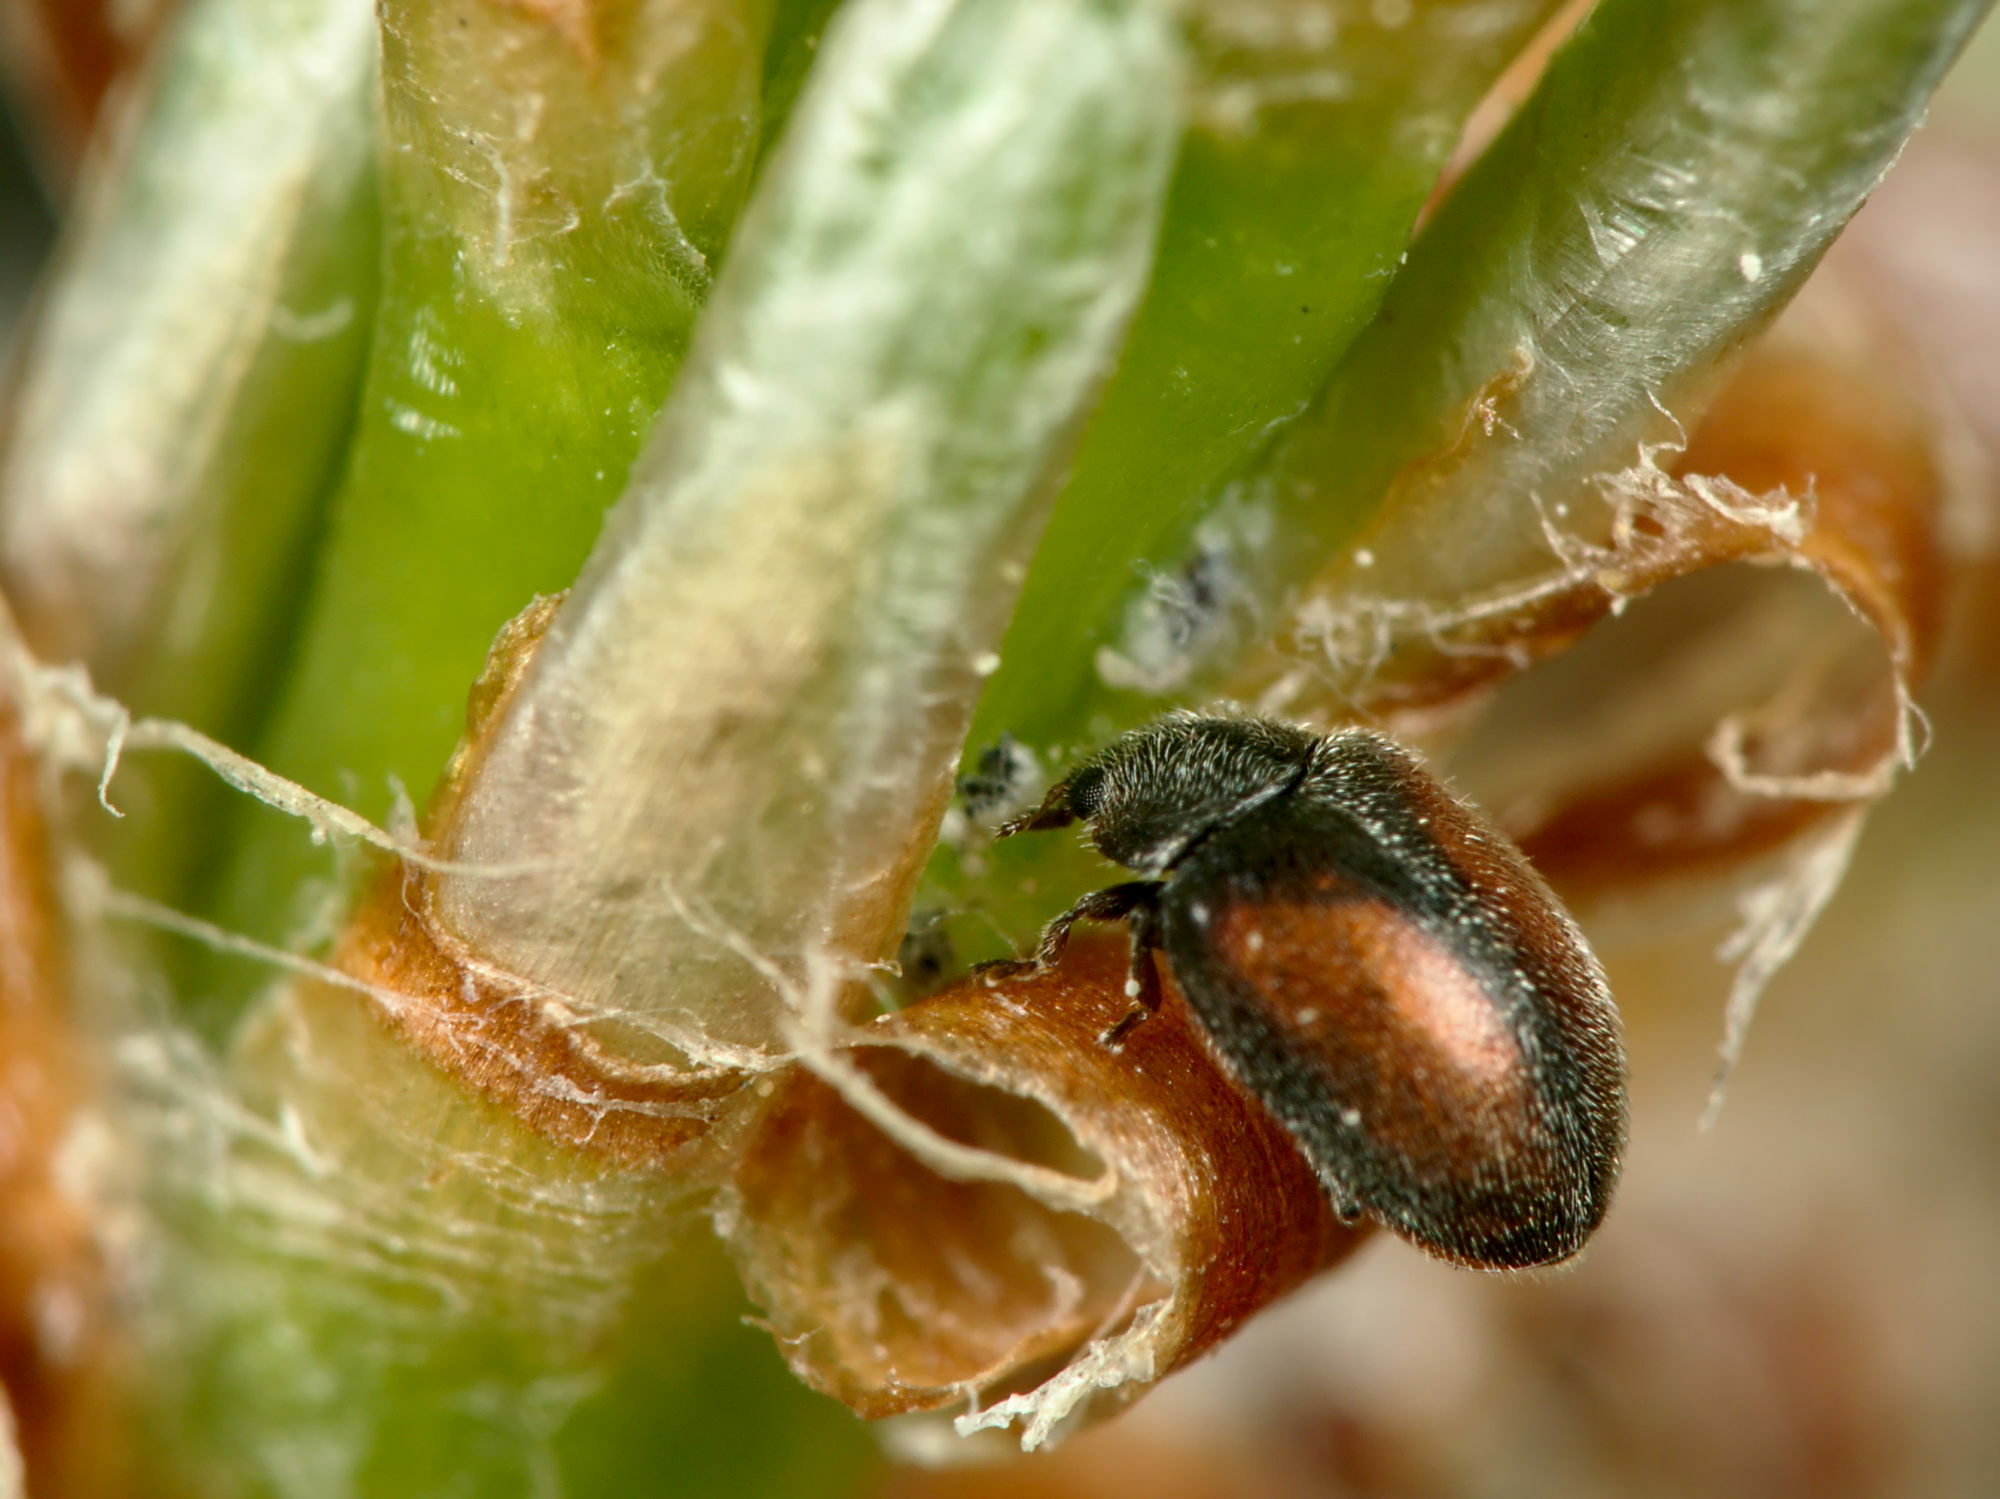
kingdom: Animalia
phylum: Arthropoda
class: Insecta
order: Coleoptera
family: Coccinellidae
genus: Scymnus
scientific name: Scymnus suturalis
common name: Ladybird beetle
